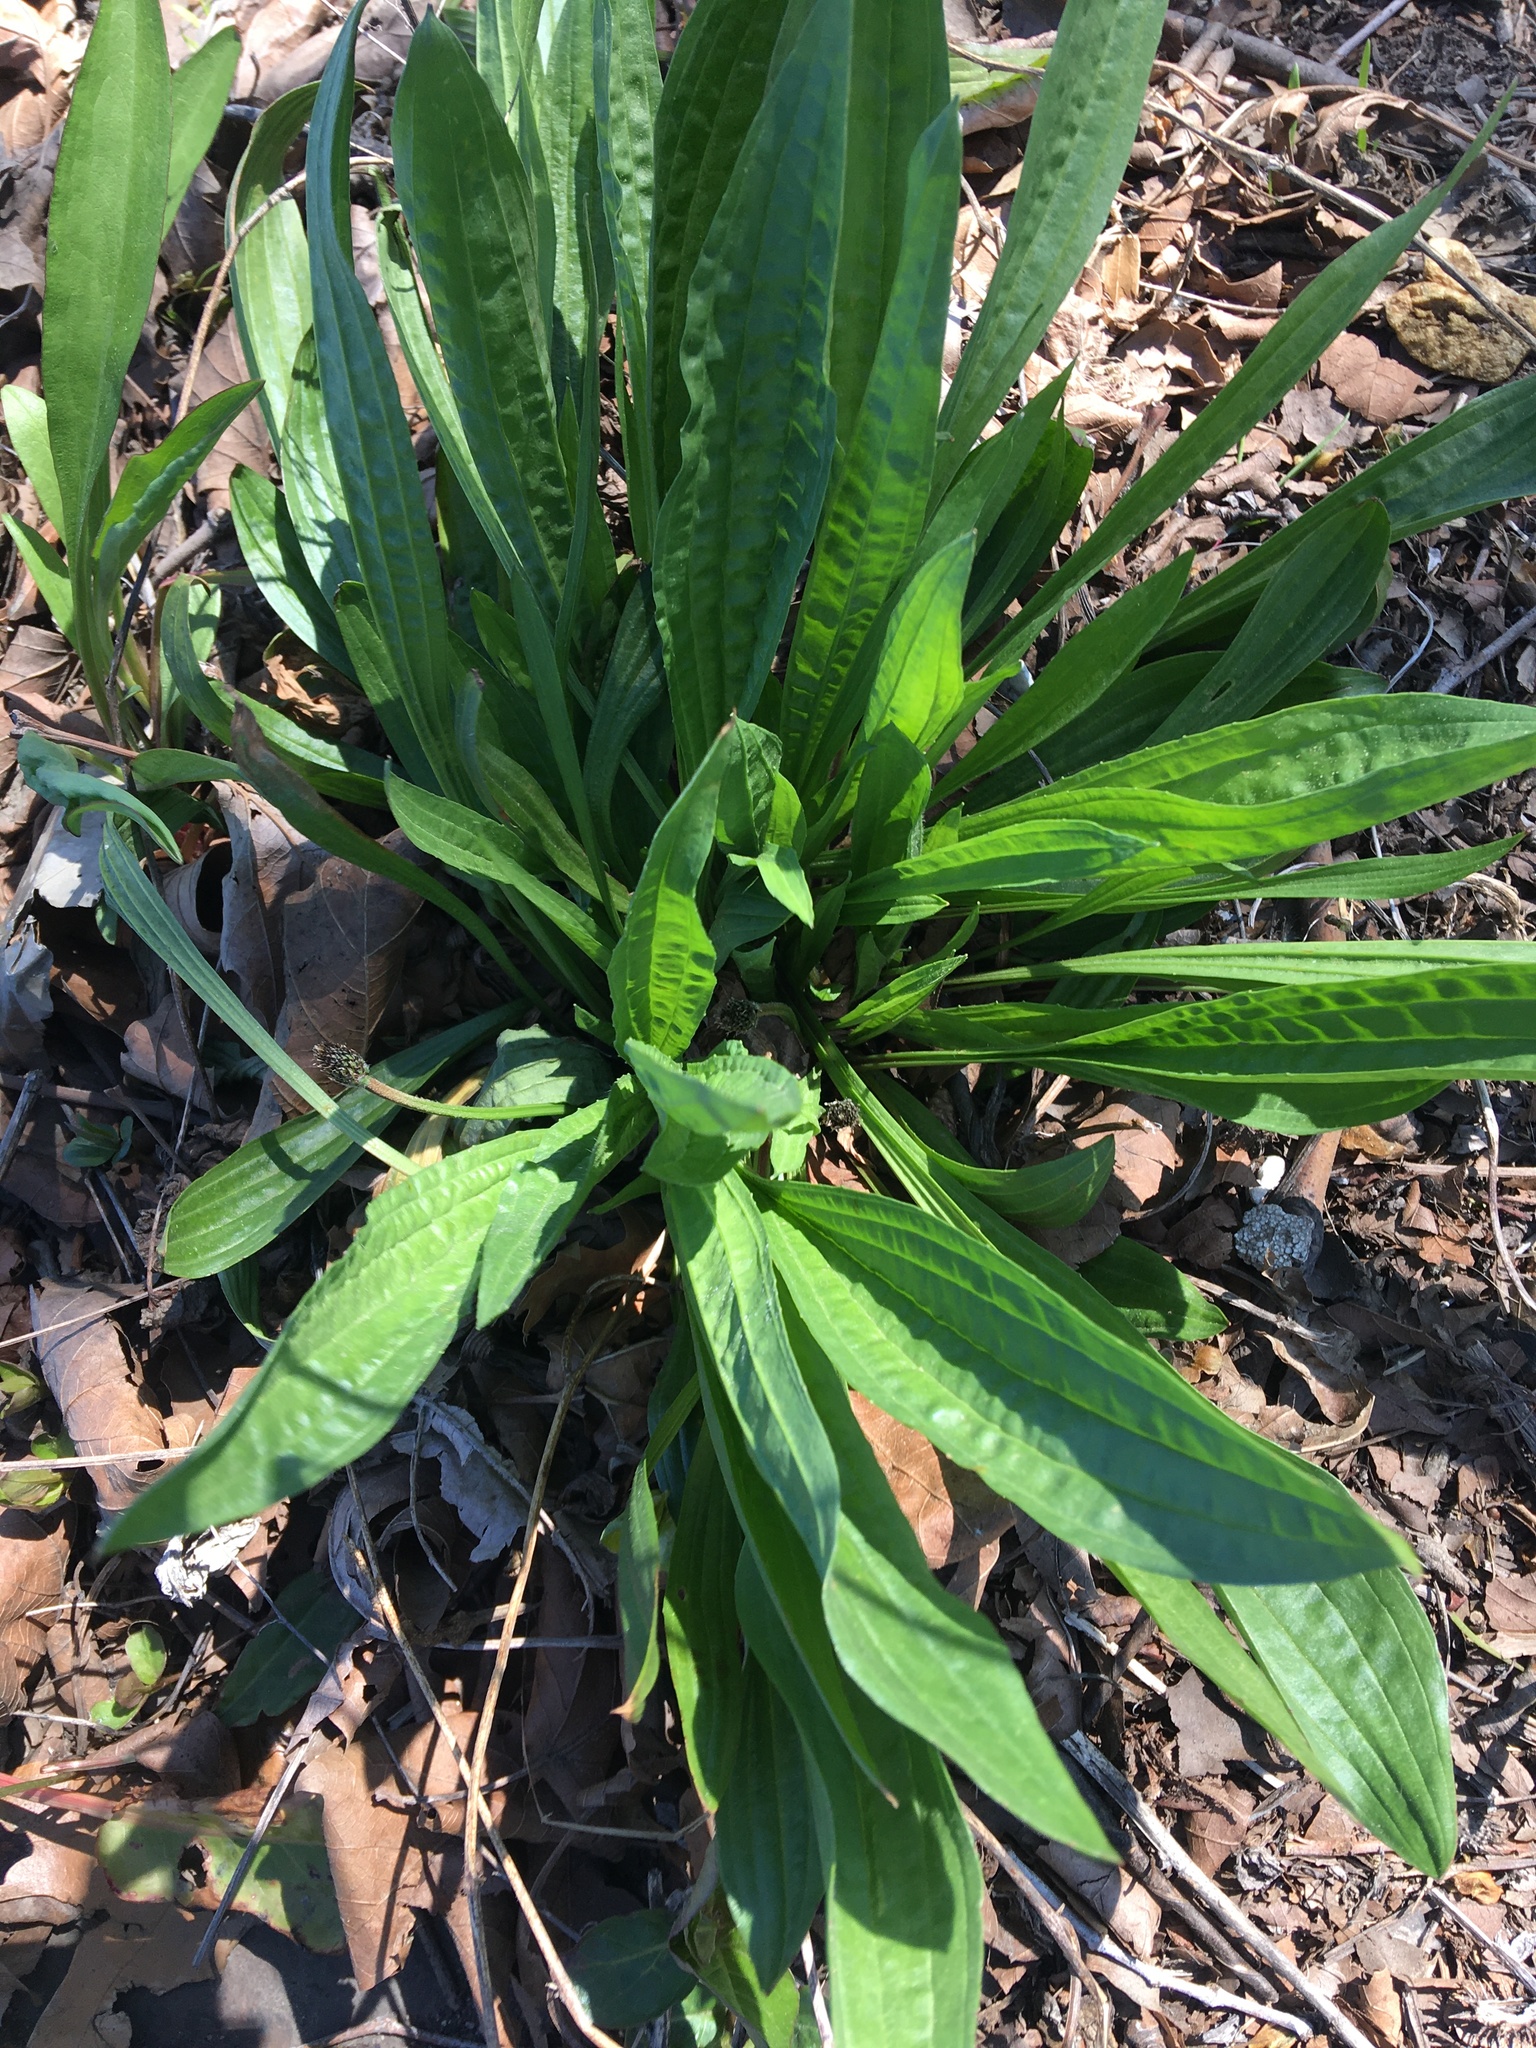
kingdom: Plantae
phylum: Tracheophyta
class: Magnoliopsida
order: Lamiales
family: Plantaginaceae
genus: Plantago
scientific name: Plantago lanceolata
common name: Ribwort plantain
